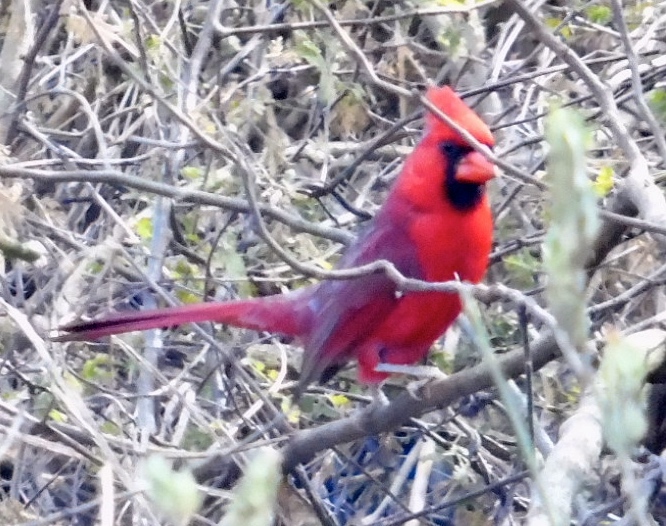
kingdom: Animalia
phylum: Chordata
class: Aves
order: Passeriformes
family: Cardinalidae
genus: Cardinalis
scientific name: Cardinalis cardinalis
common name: Northern cardinal
